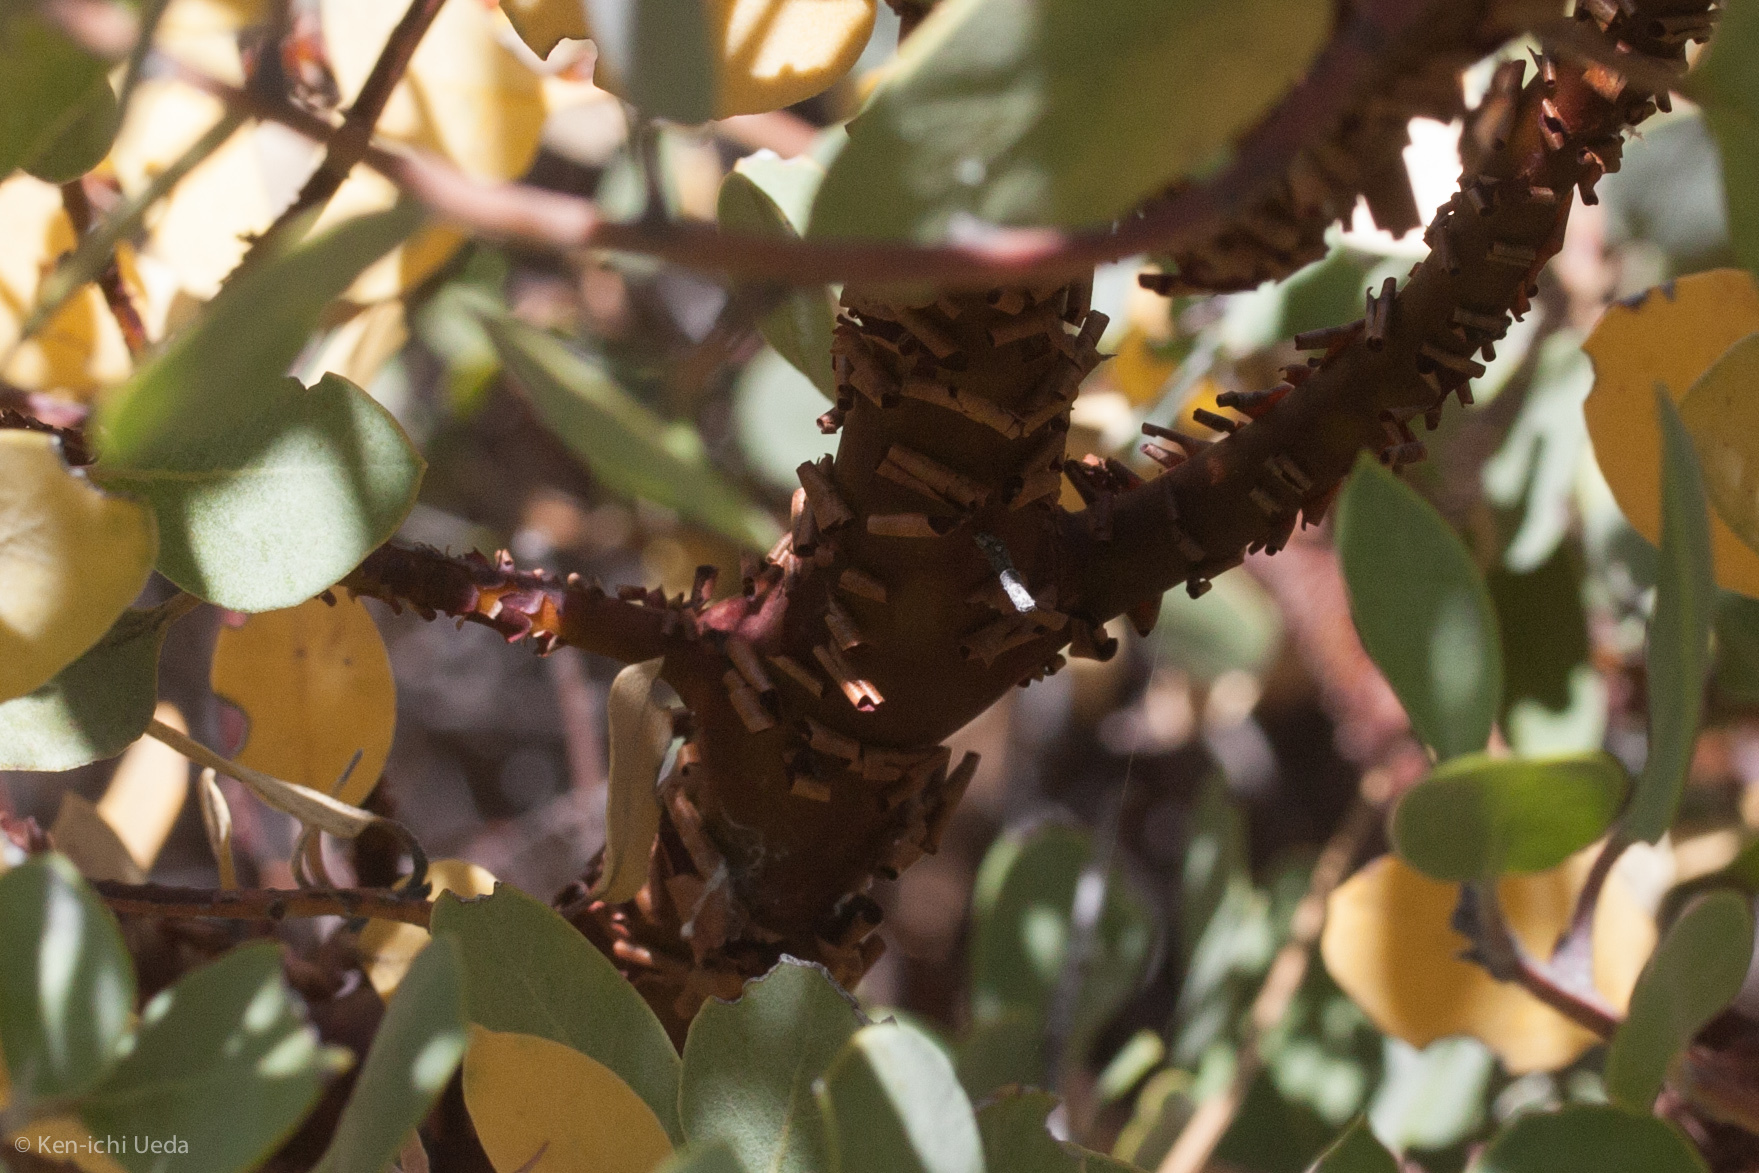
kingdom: Plantae
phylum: Tracheophyta
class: Magnoliopsida
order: Ericales
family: Ericaceae
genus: Arctostaphylos
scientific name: Arctostaphylos obispoensis
